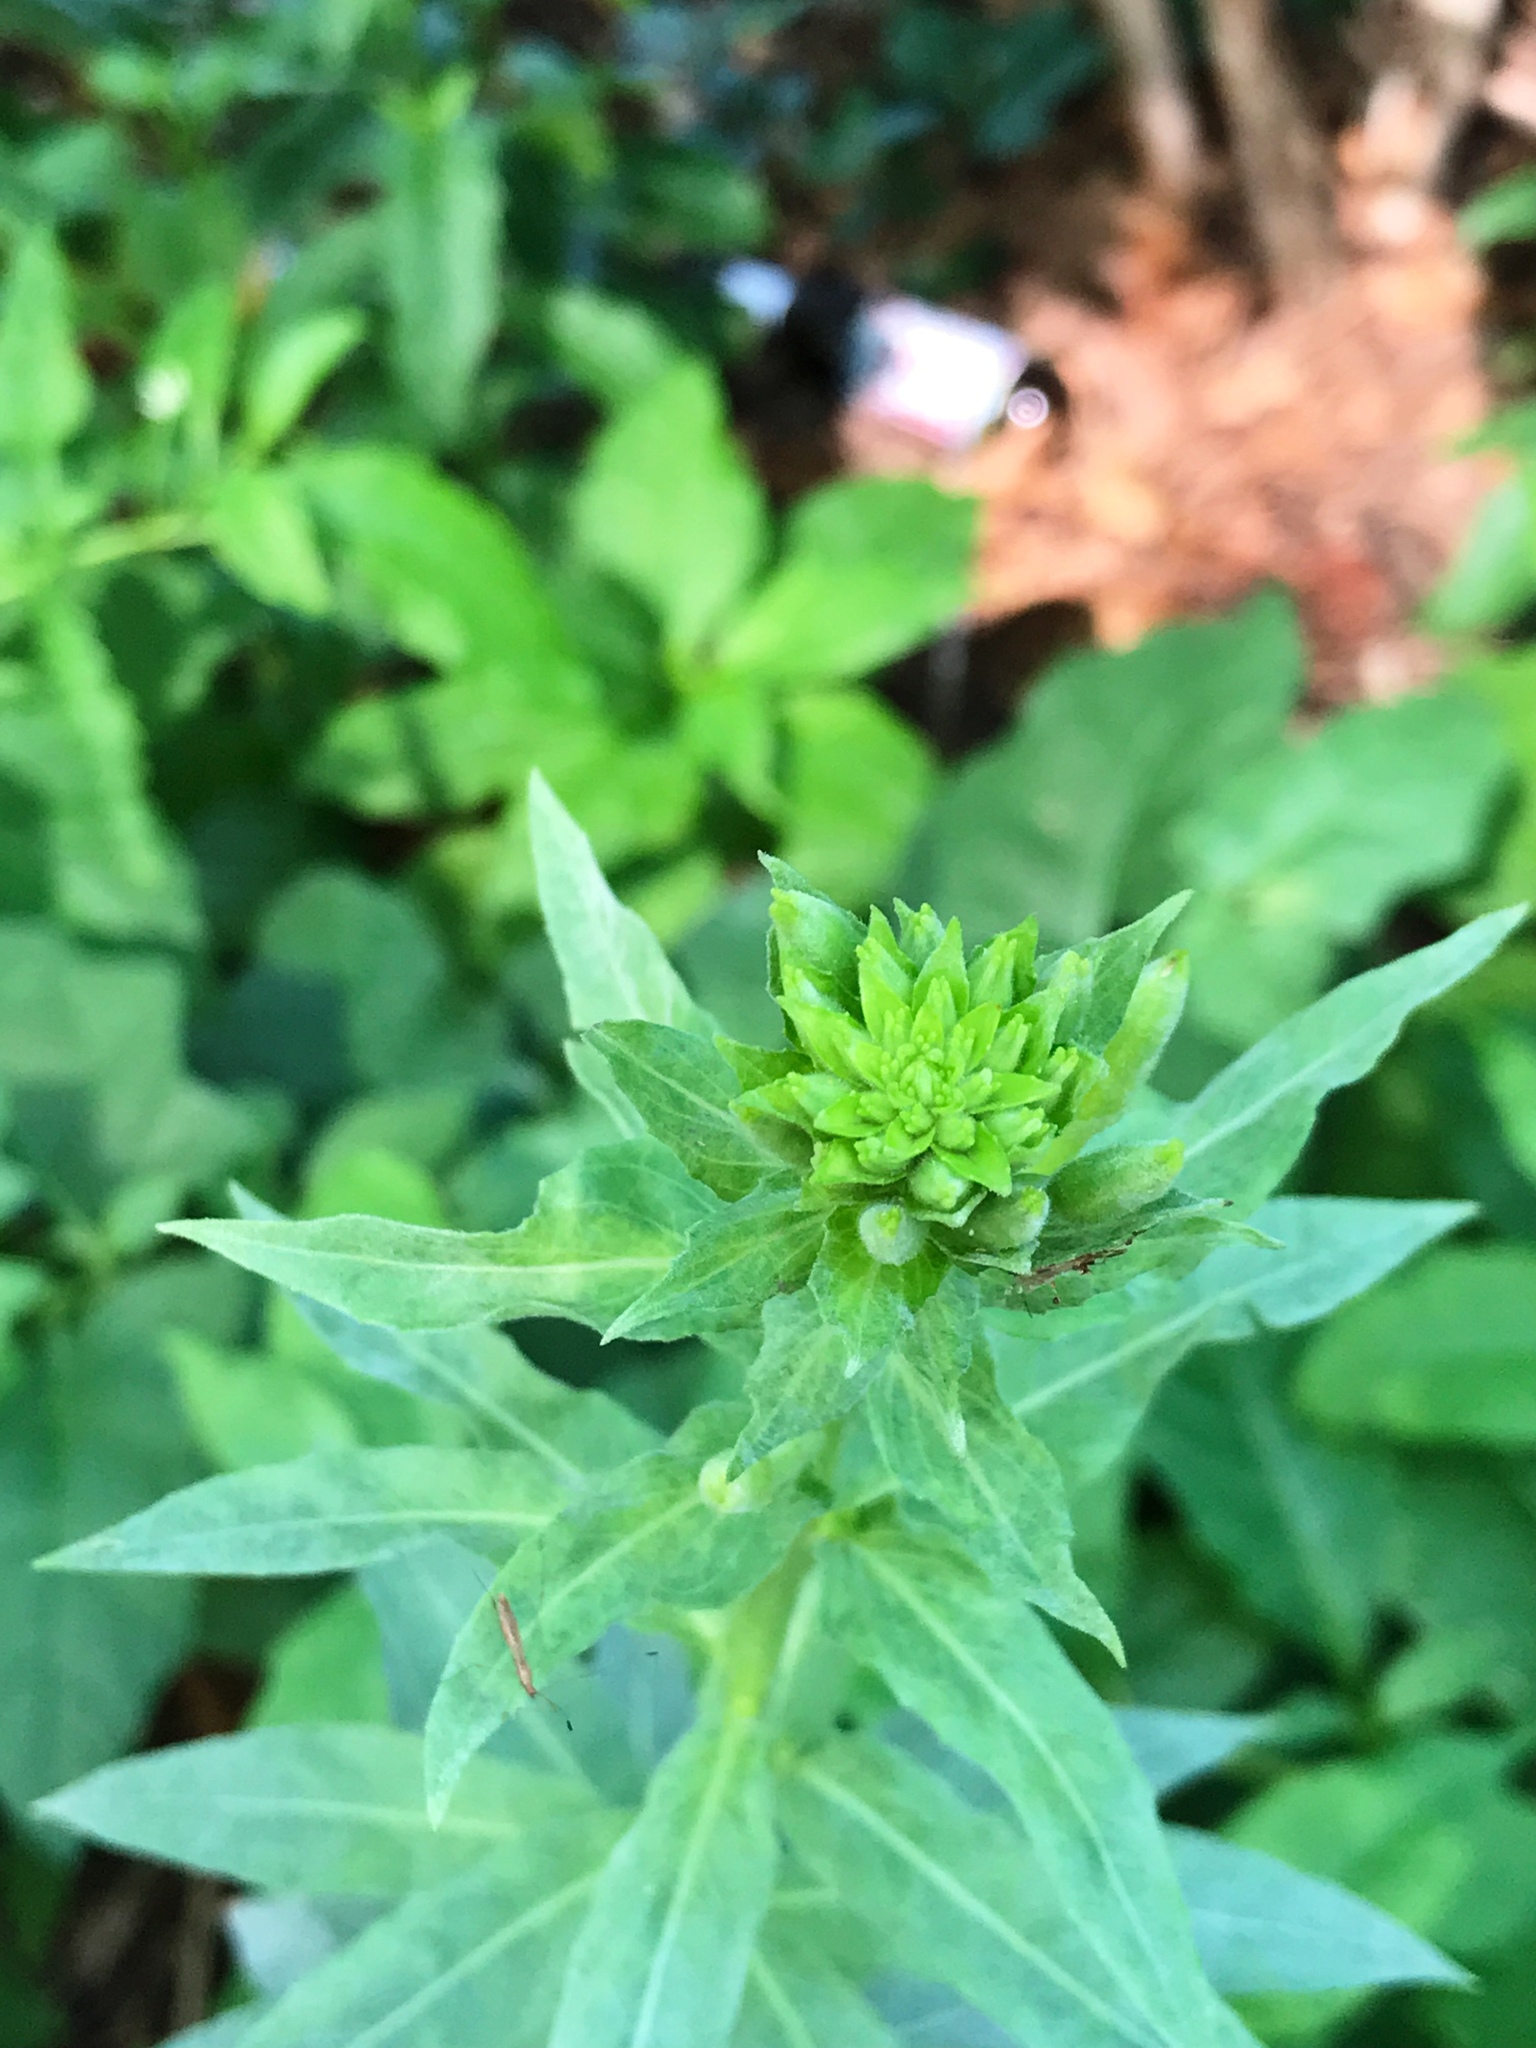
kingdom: Plantae
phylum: Tracheophyta
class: Magnoliopsida
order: Myrtales
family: Onagraceae
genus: Oenothera
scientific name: Oenothera biennis
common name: Common evening-primrose
